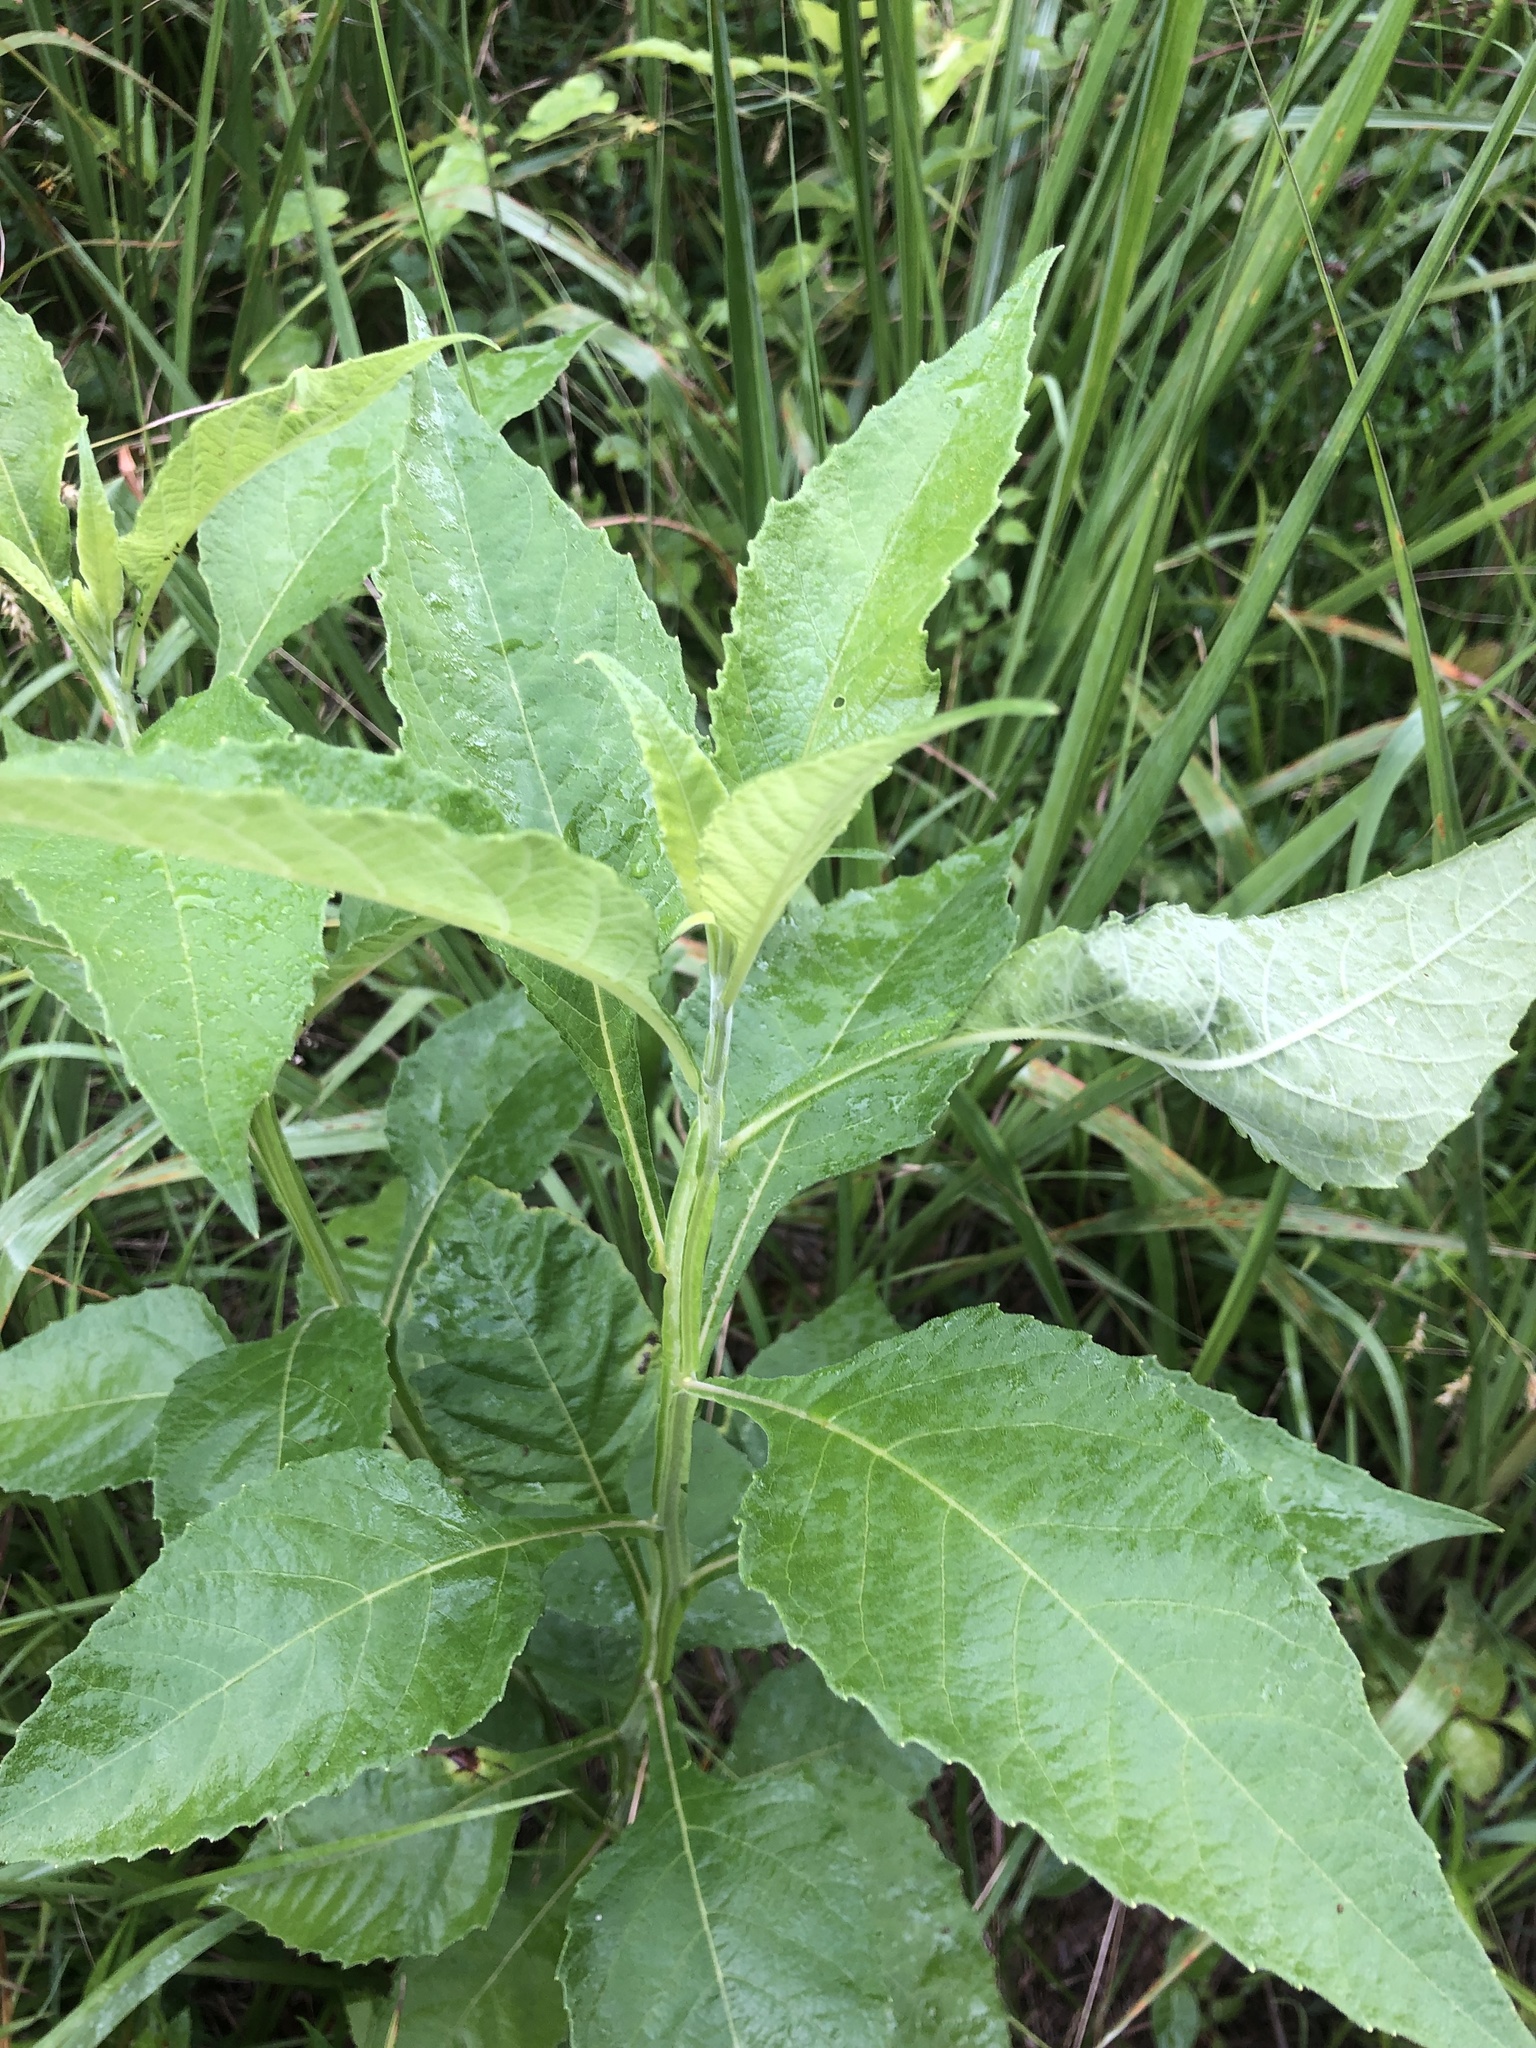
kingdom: Plantae
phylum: Tracheophyta
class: Magnoliopsida
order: Asterales
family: Asteraceae
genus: Verbesina
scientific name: Verbesina virginica
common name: Frostweed
